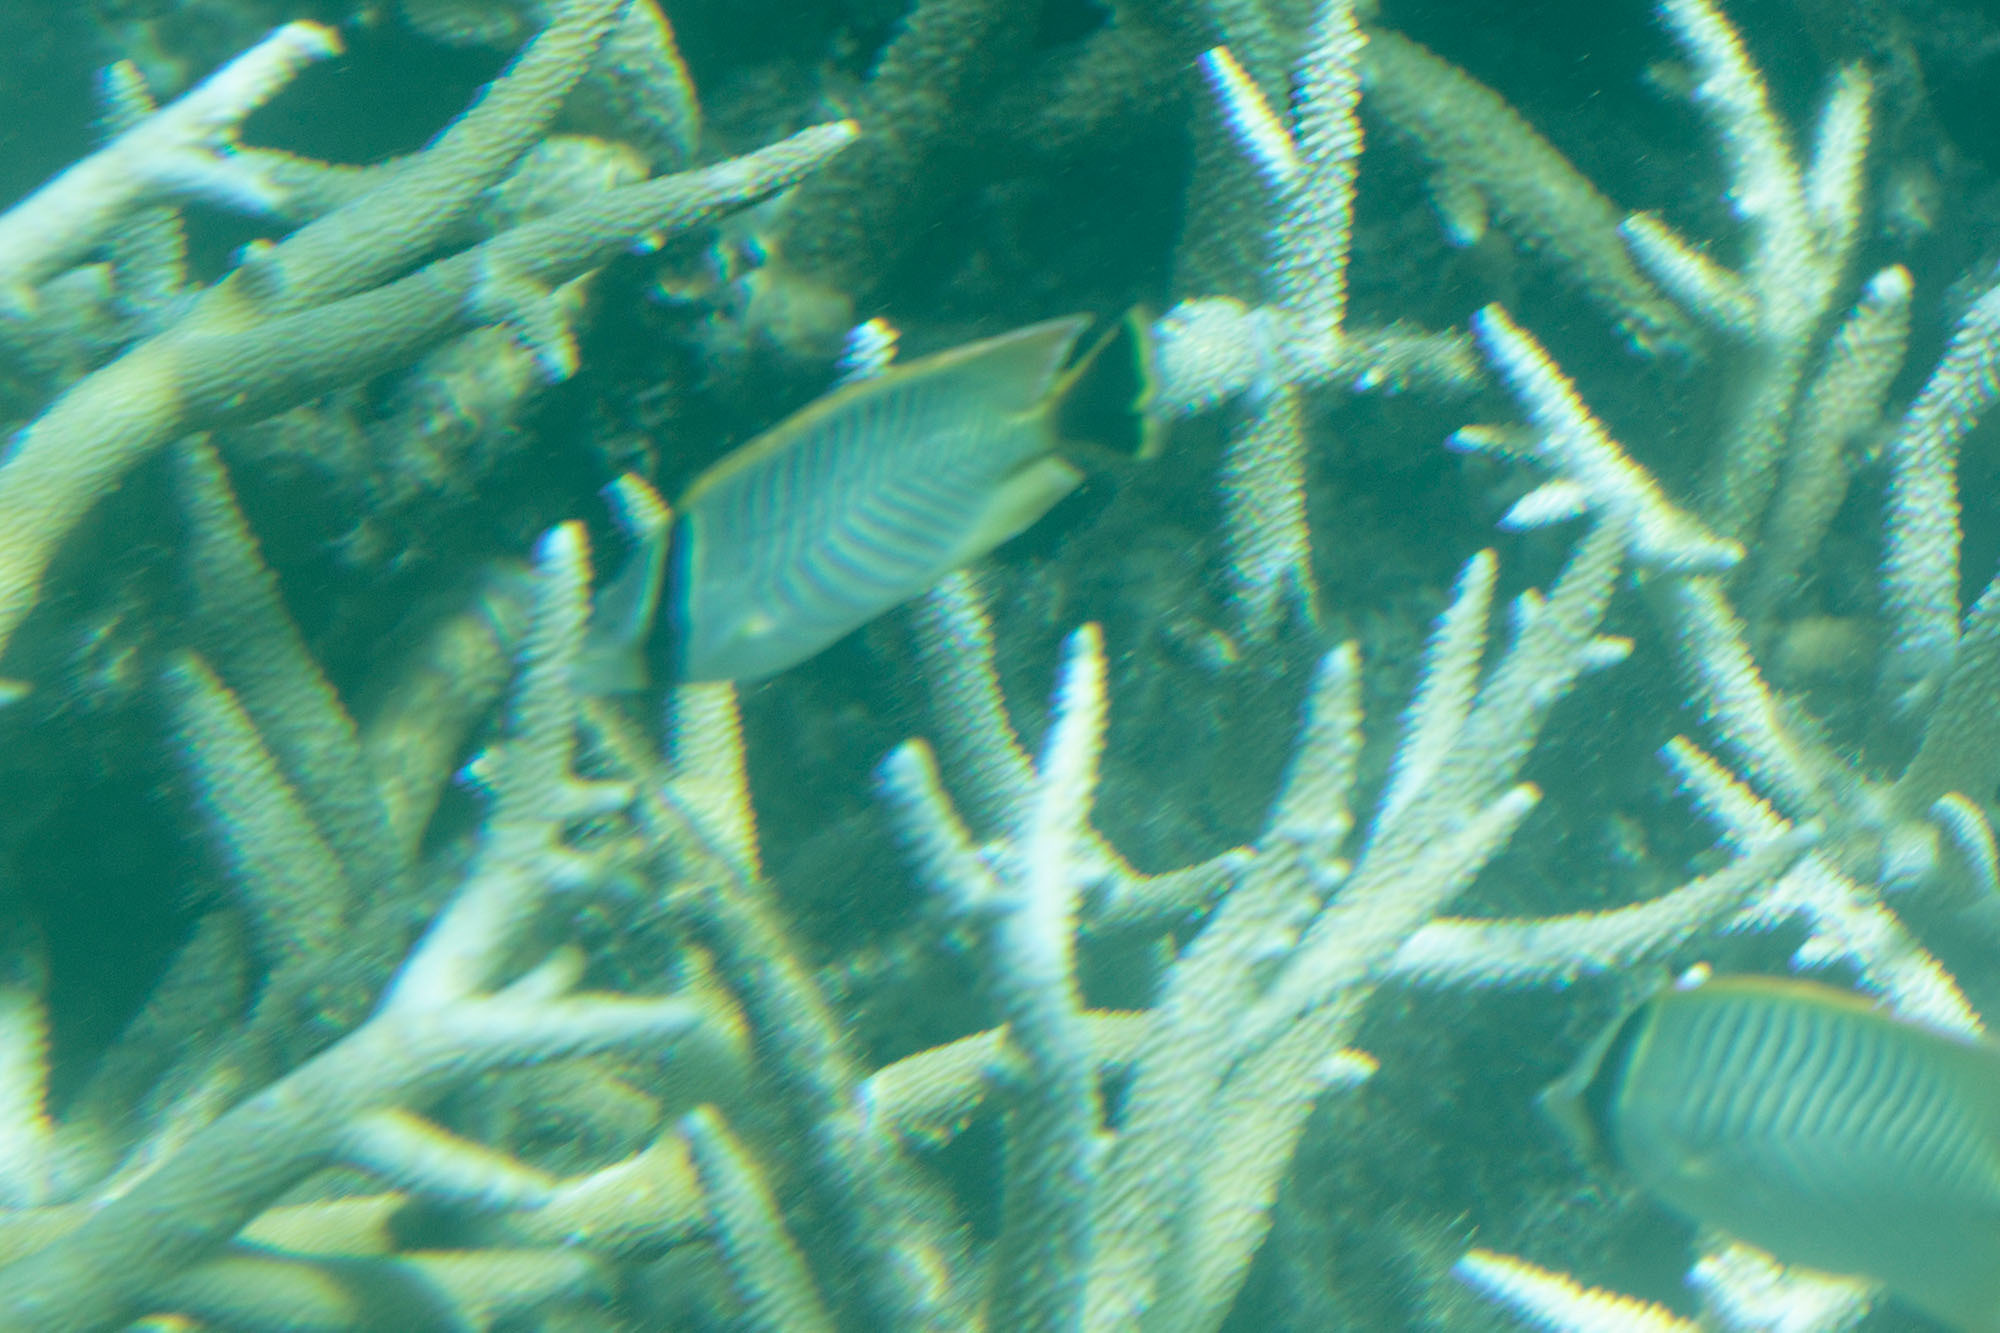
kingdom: Animalia
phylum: Chordata
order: Perciformes
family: Chaetodontidae
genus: Chaetodon
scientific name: Chaetodon trifascialis
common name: Chevroned butterflyfish
